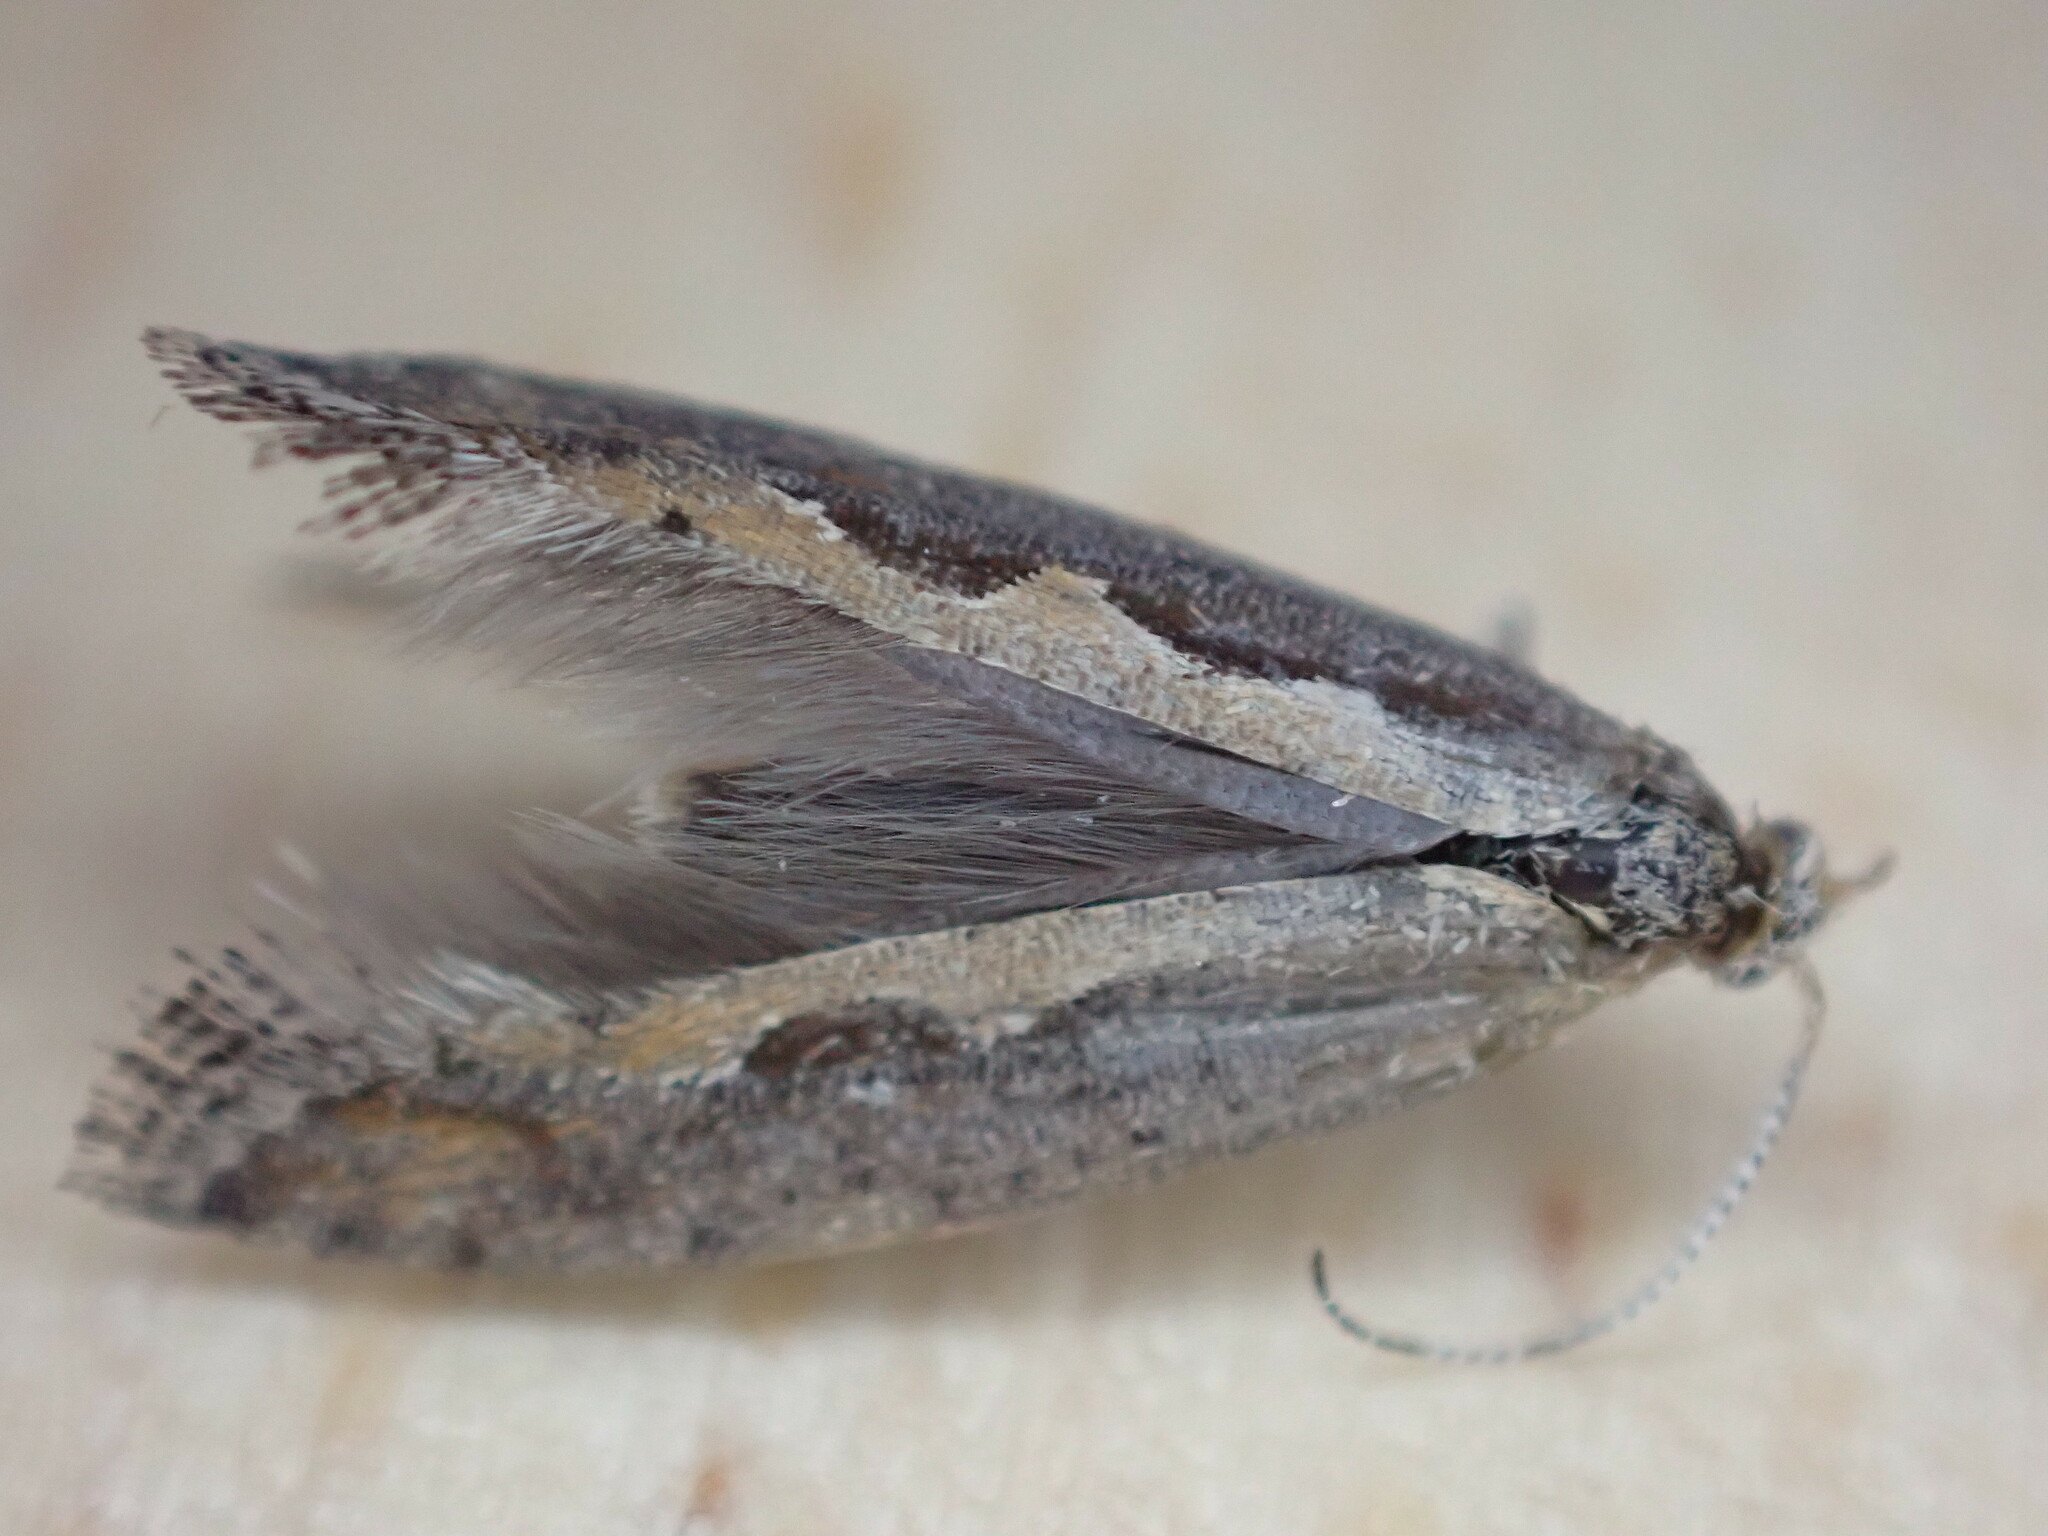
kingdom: Animalia
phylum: Arthropoda
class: Insecta
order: Lepidoptera
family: Plutellidae
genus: Plutella
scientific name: Plutella xylostella
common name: Diamond-back moth
